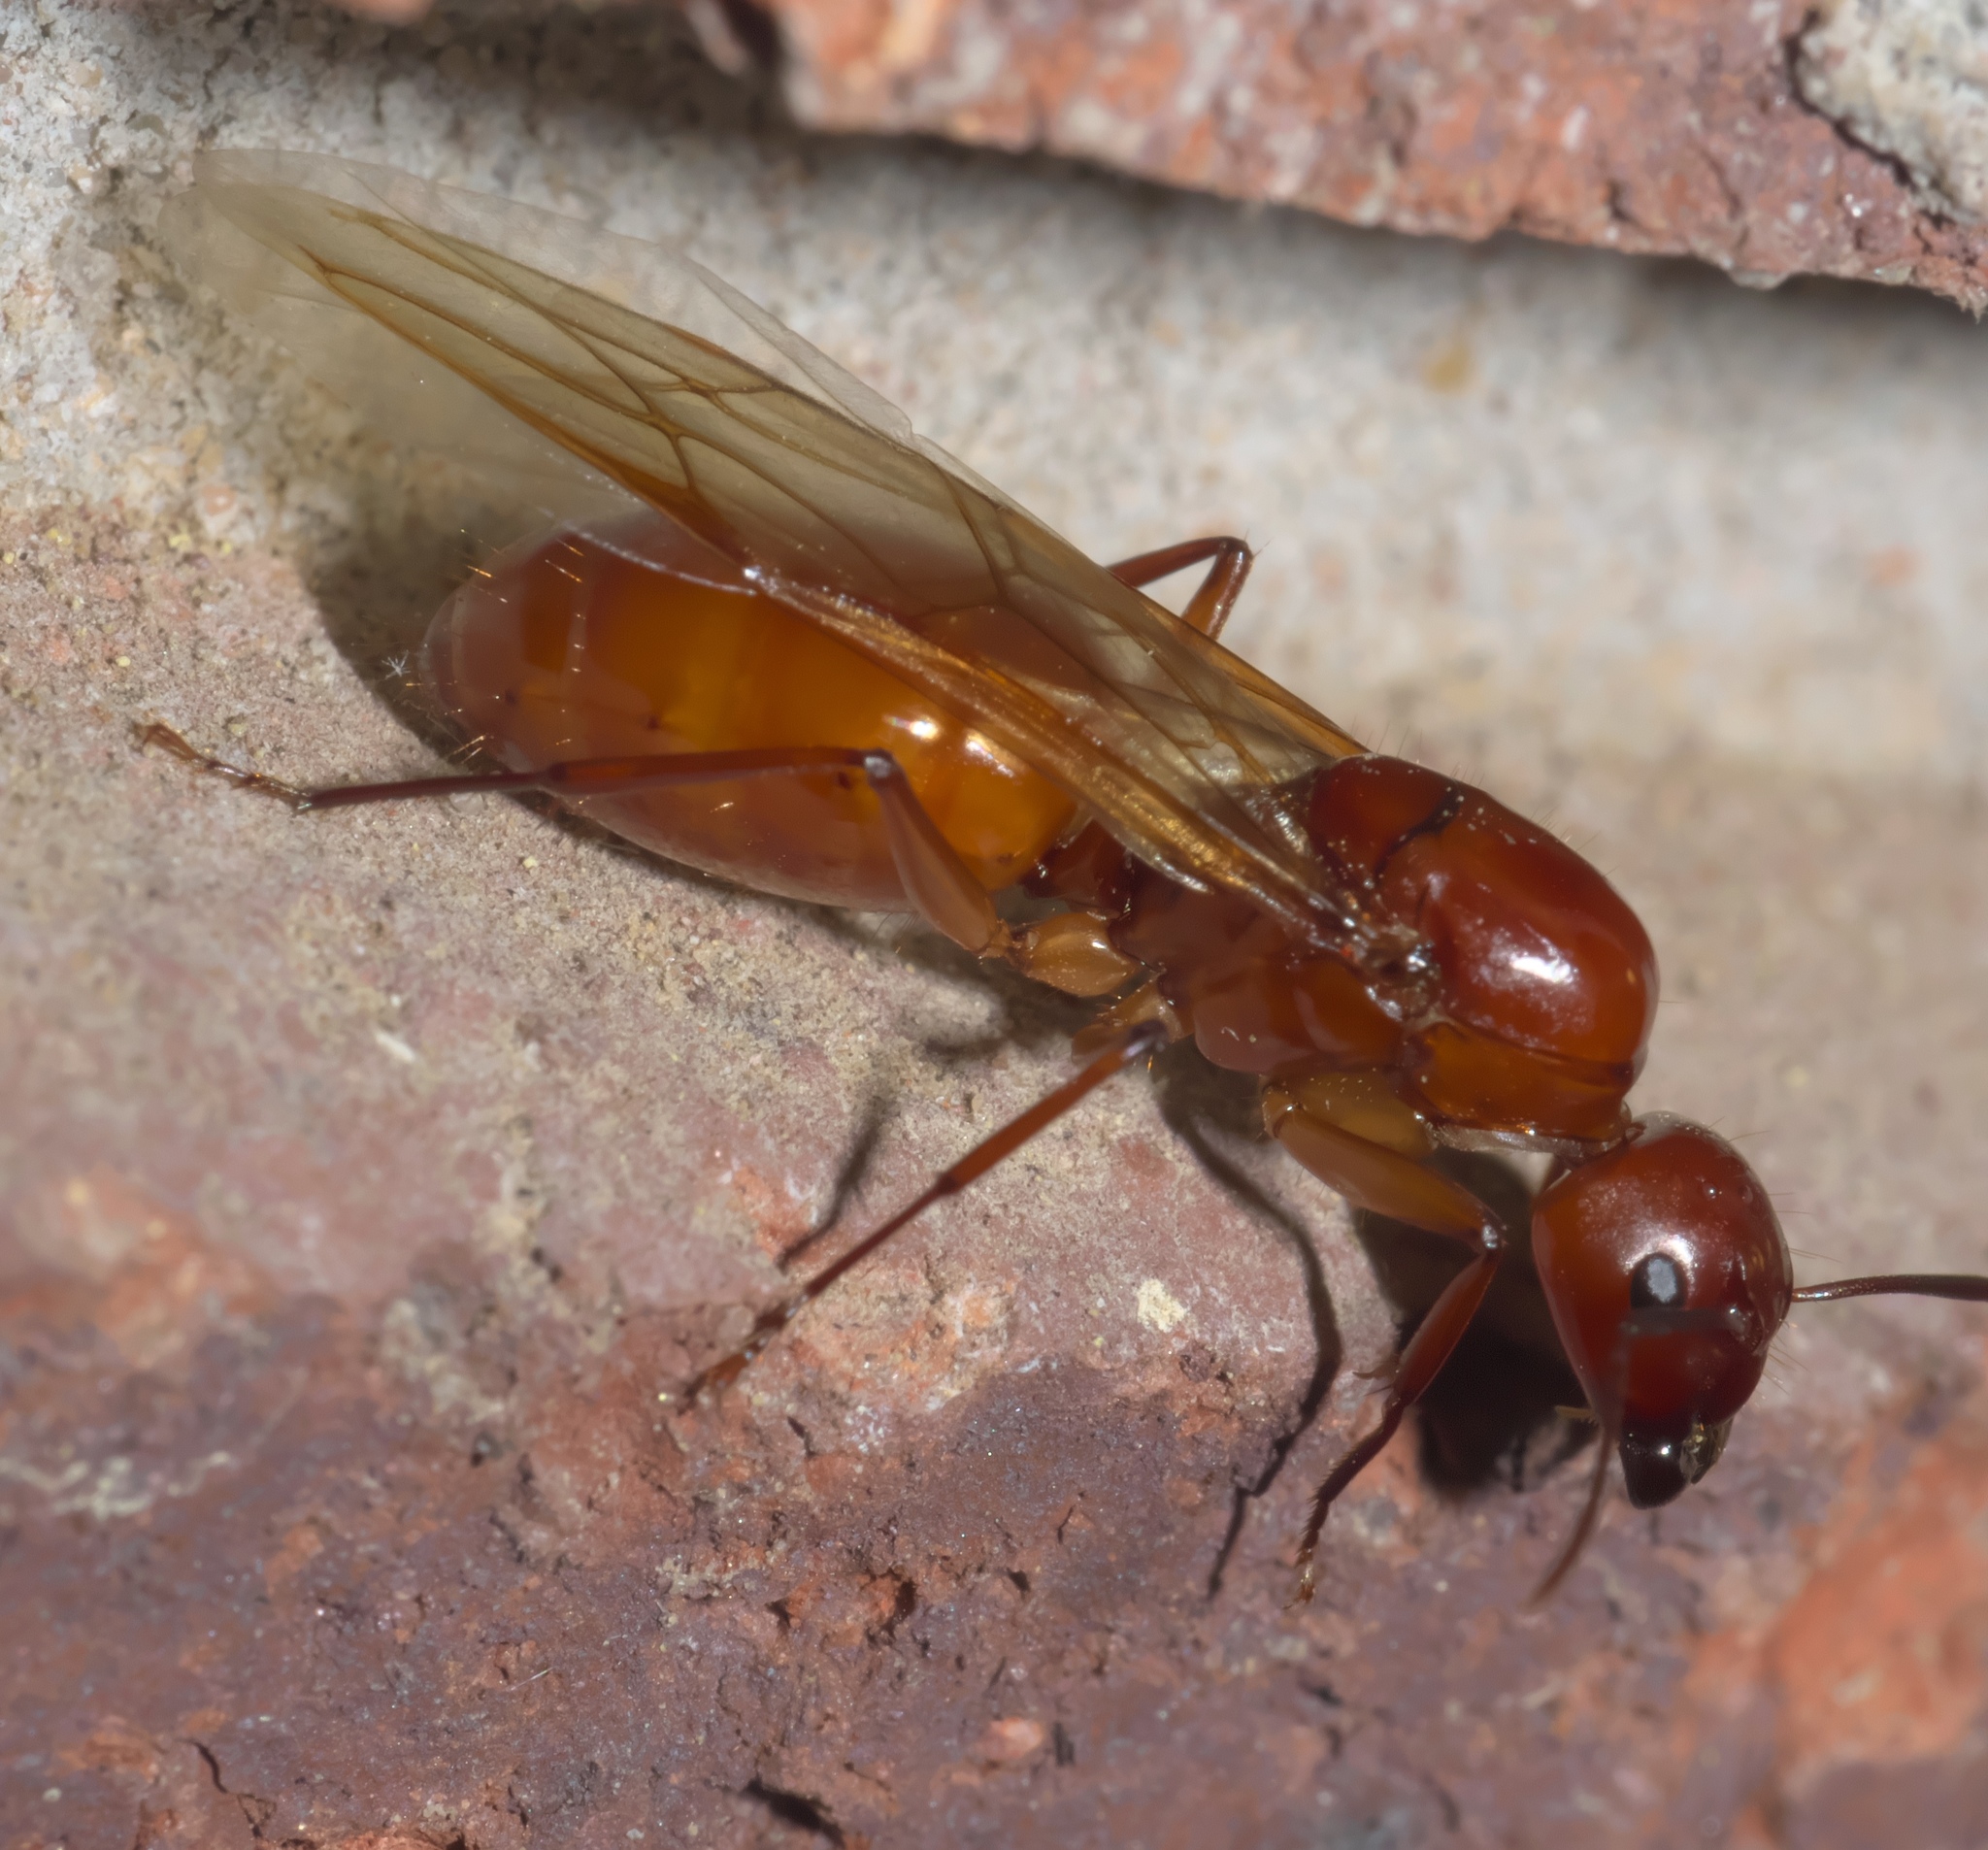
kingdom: Animalia
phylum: Arthropoda
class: Insecta
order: Hymenoptera
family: Formicidae
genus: Camponotus
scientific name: Camponotus castaneus
